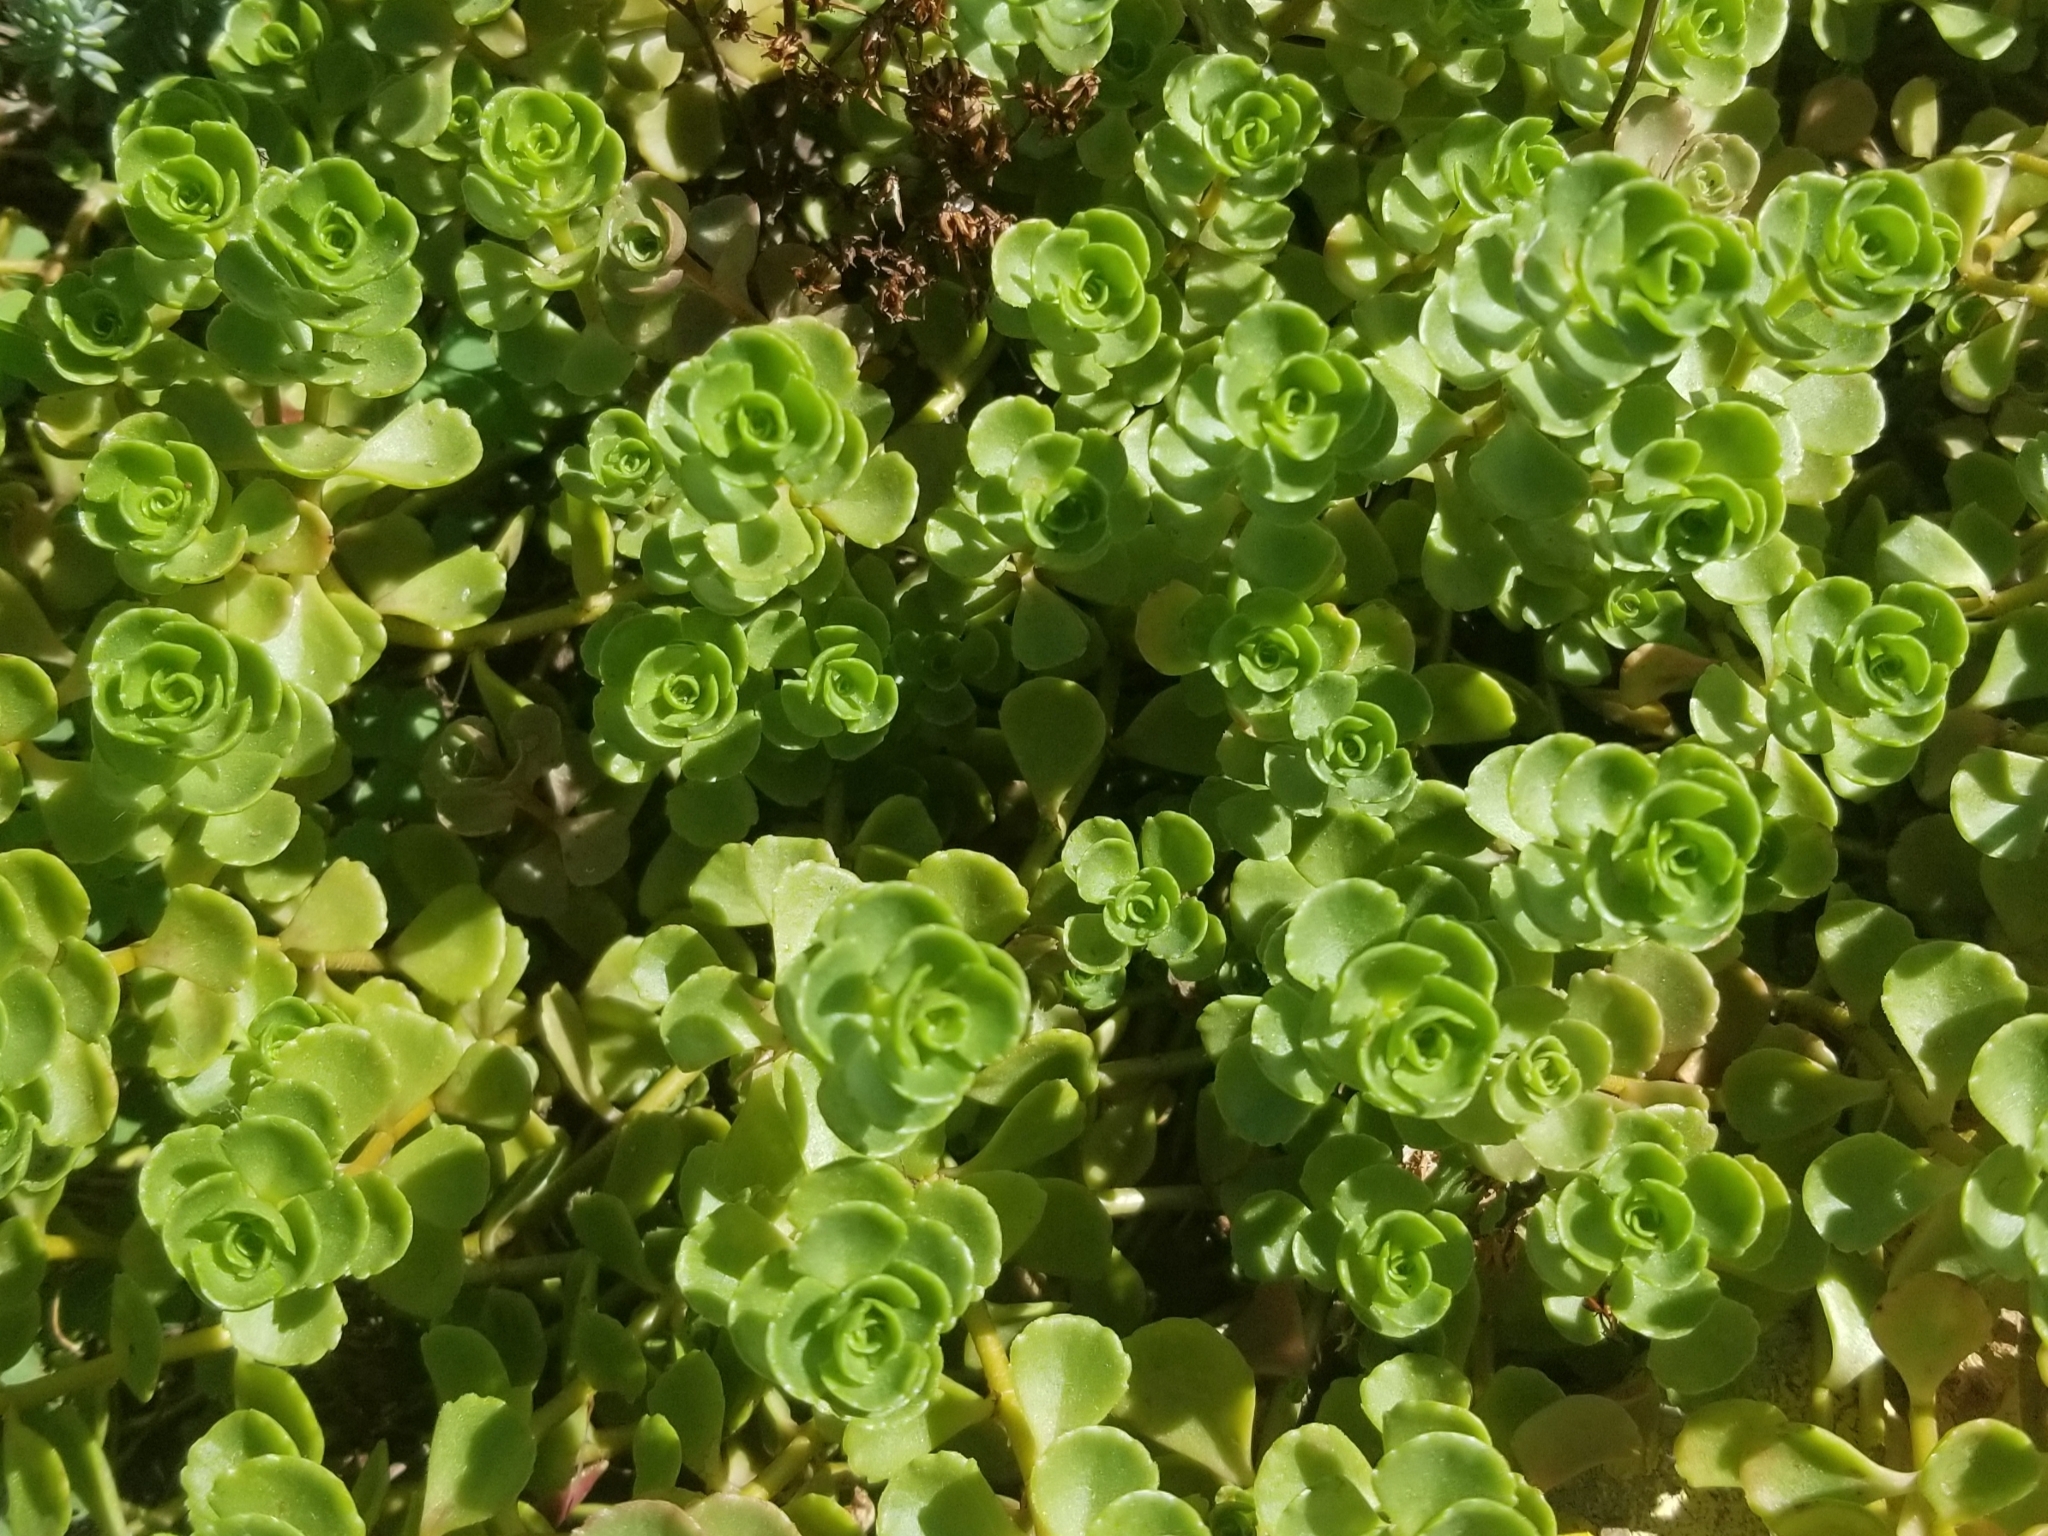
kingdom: Plantae
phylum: Tracheophyta
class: Magnoliopsida
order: Saxifragales
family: Crassulaceae
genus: Phedimus
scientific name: Phedimus spurius
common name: Caucasian stonecrop
